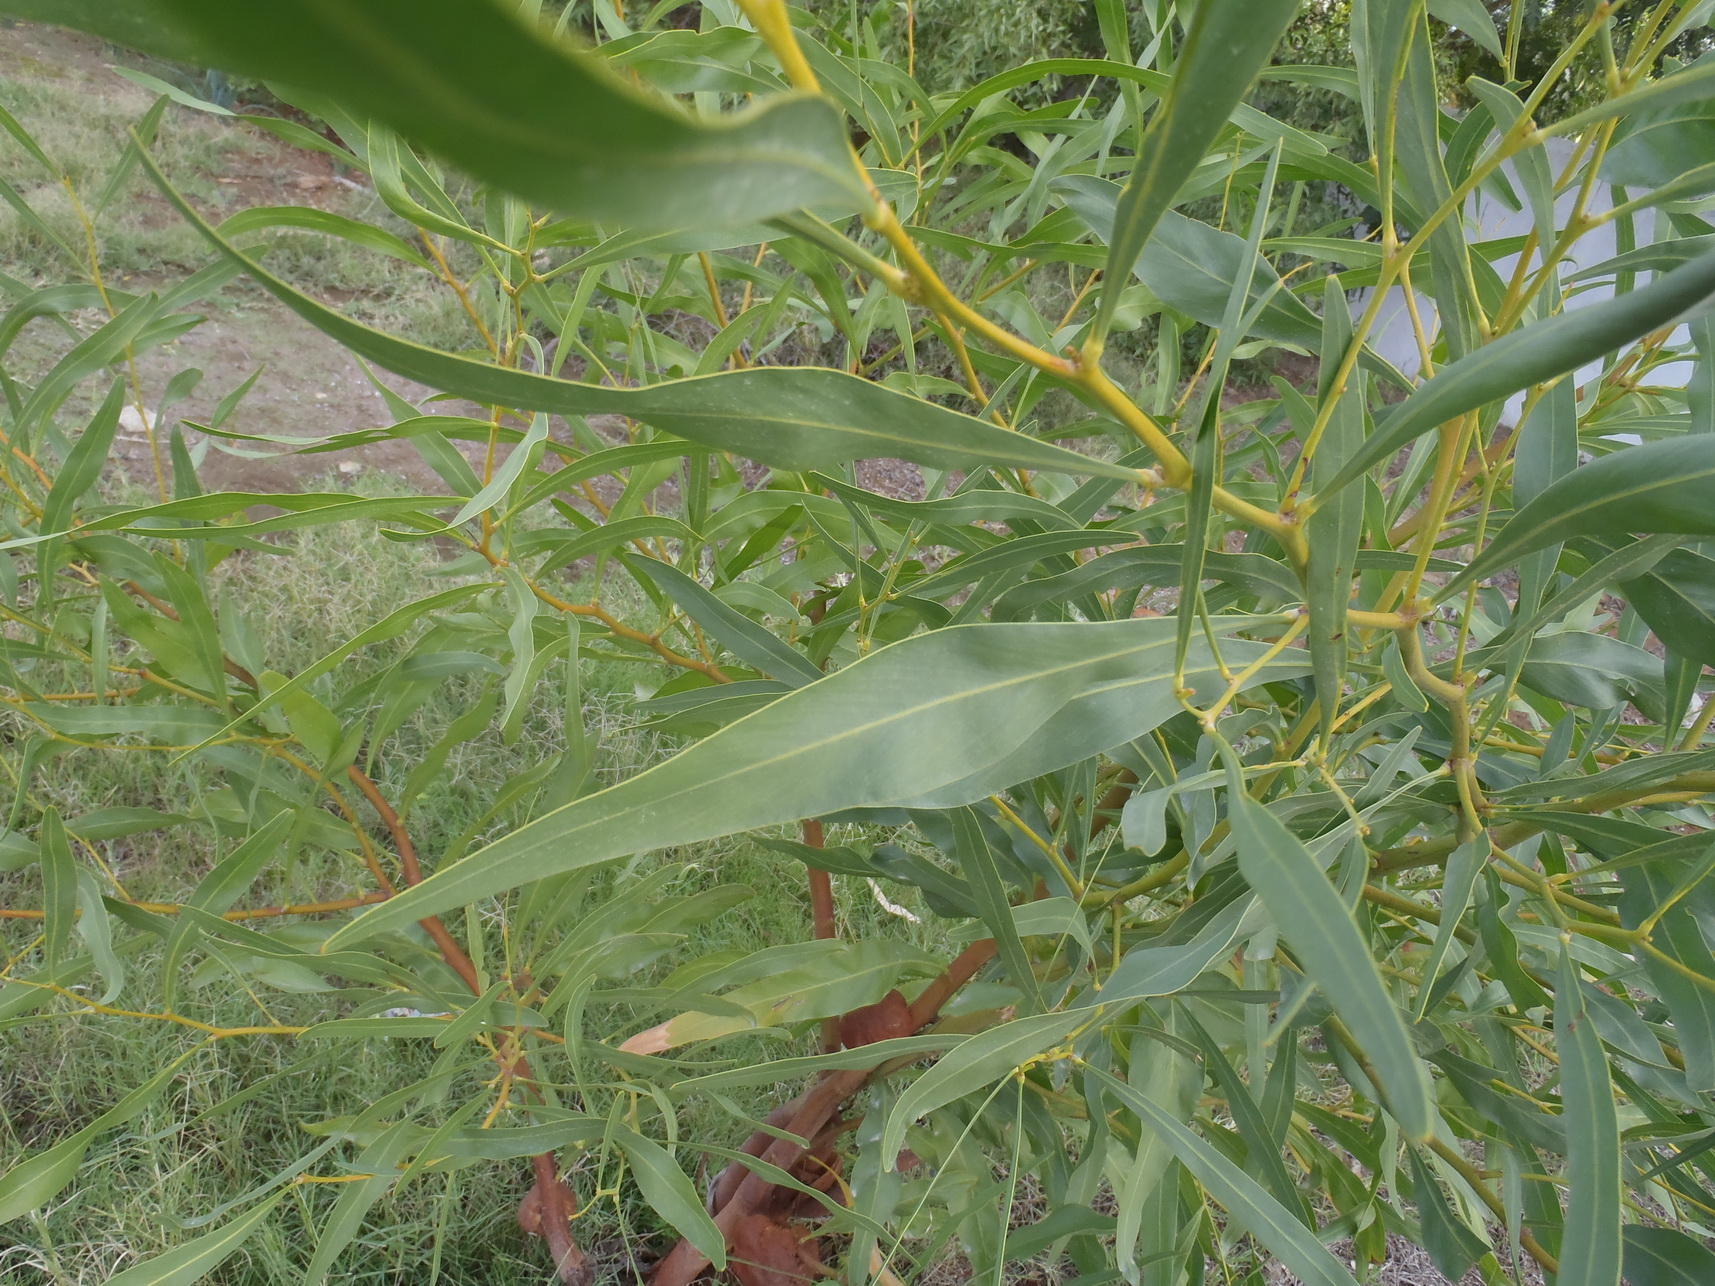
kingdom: Plantae
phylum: Tracheophyta
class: Magnoliopsida
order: Fabales
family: Fabaceae
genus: Acacia
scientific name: Acacia saligna
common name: Orange wattle
